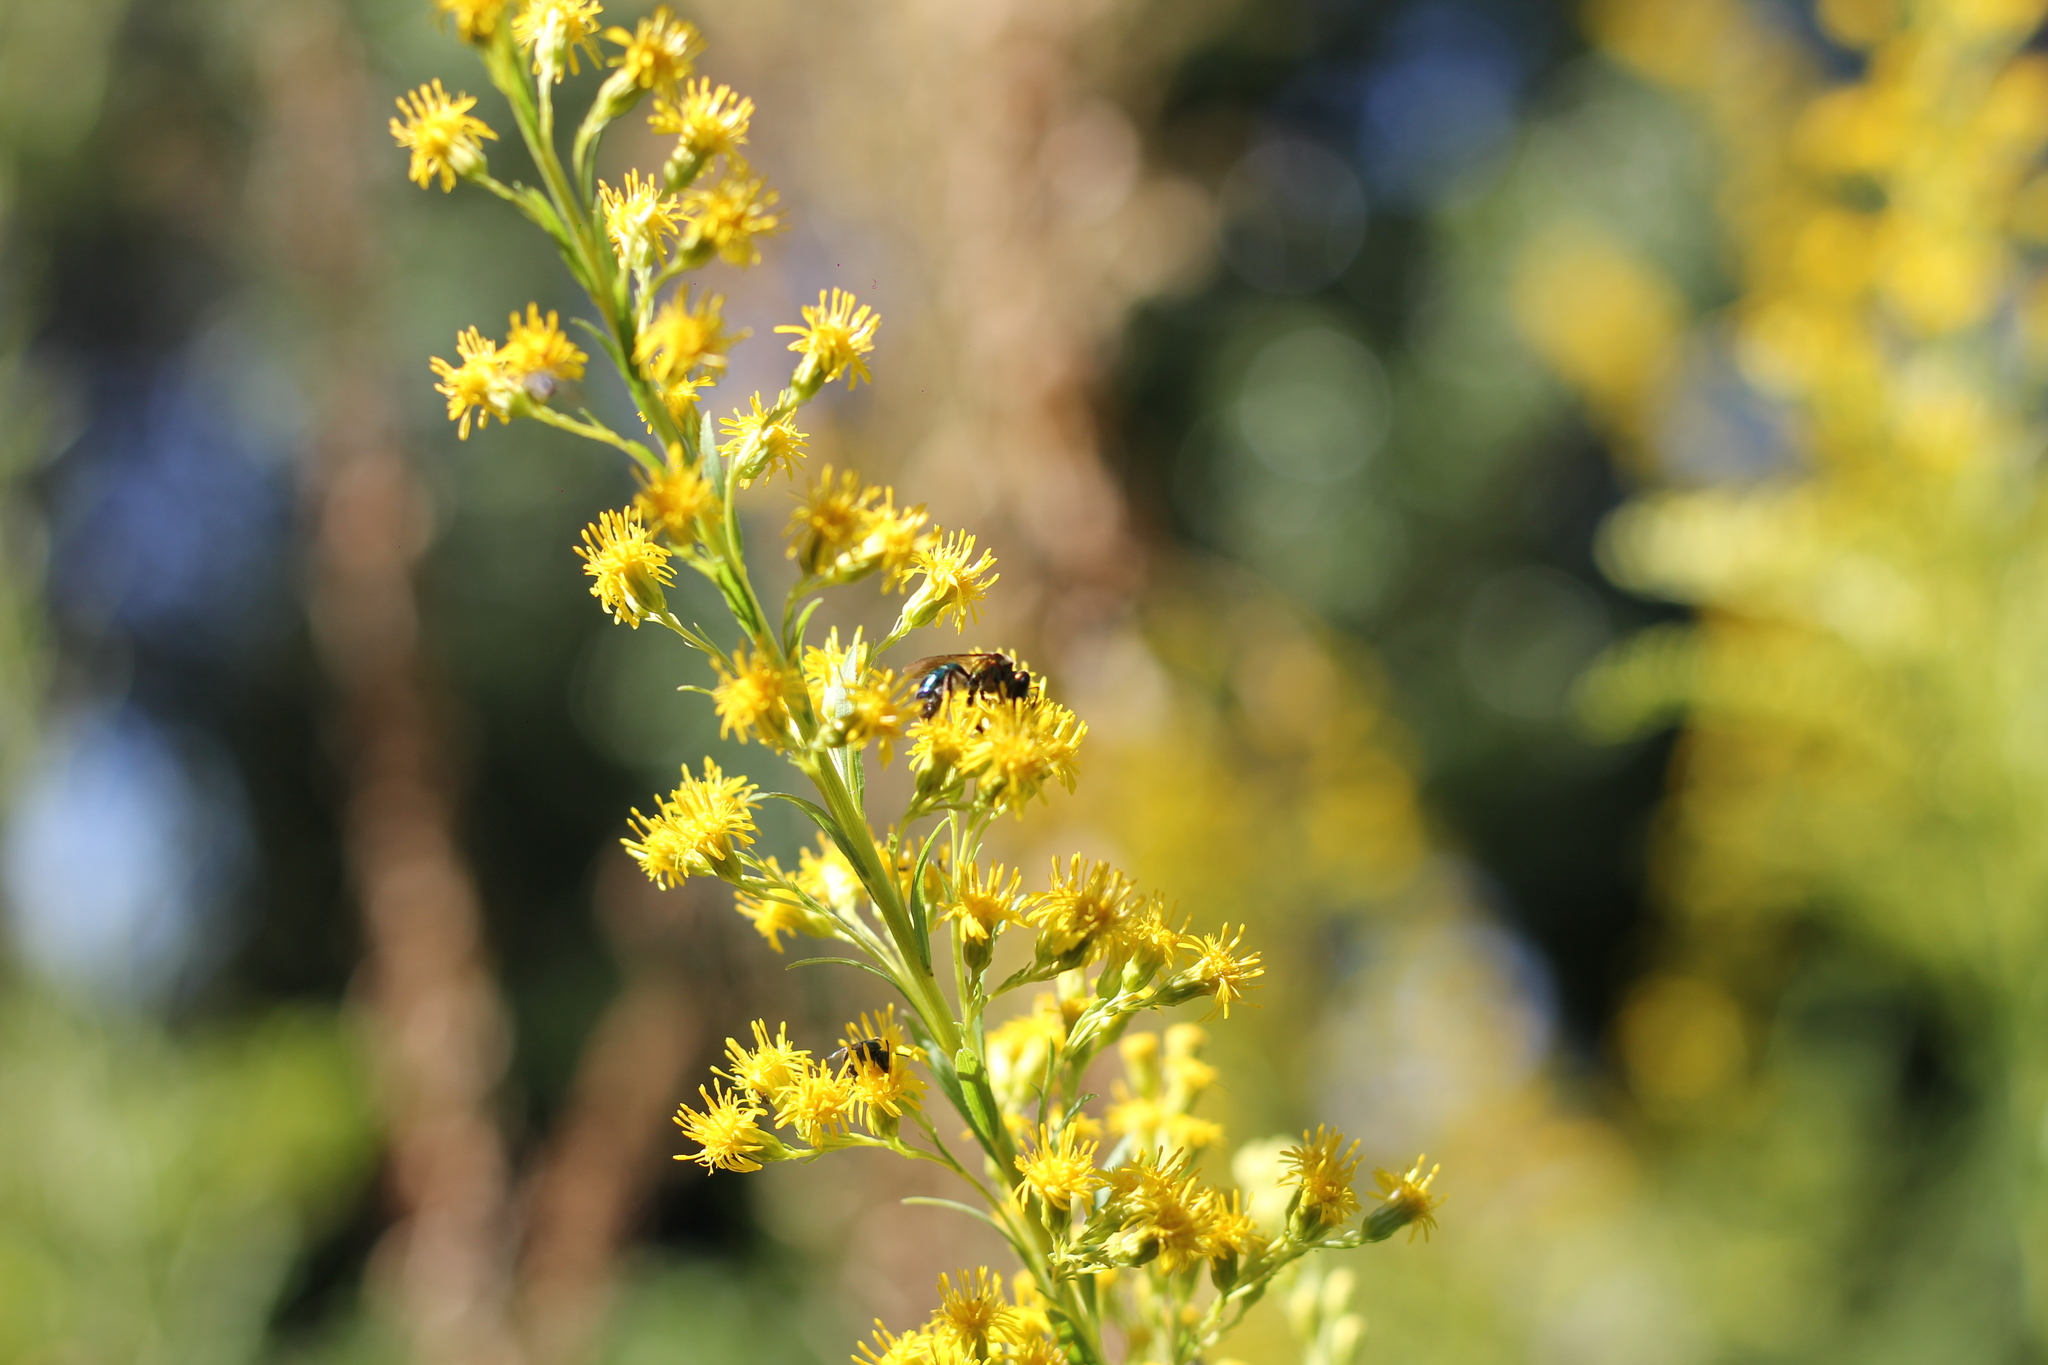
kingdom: Animalia
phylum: Arthropoda
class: Insecta
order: Hymenoptera
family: Halictidae
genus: Augochloropsis
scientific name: Augochloropsis tupacamaru
